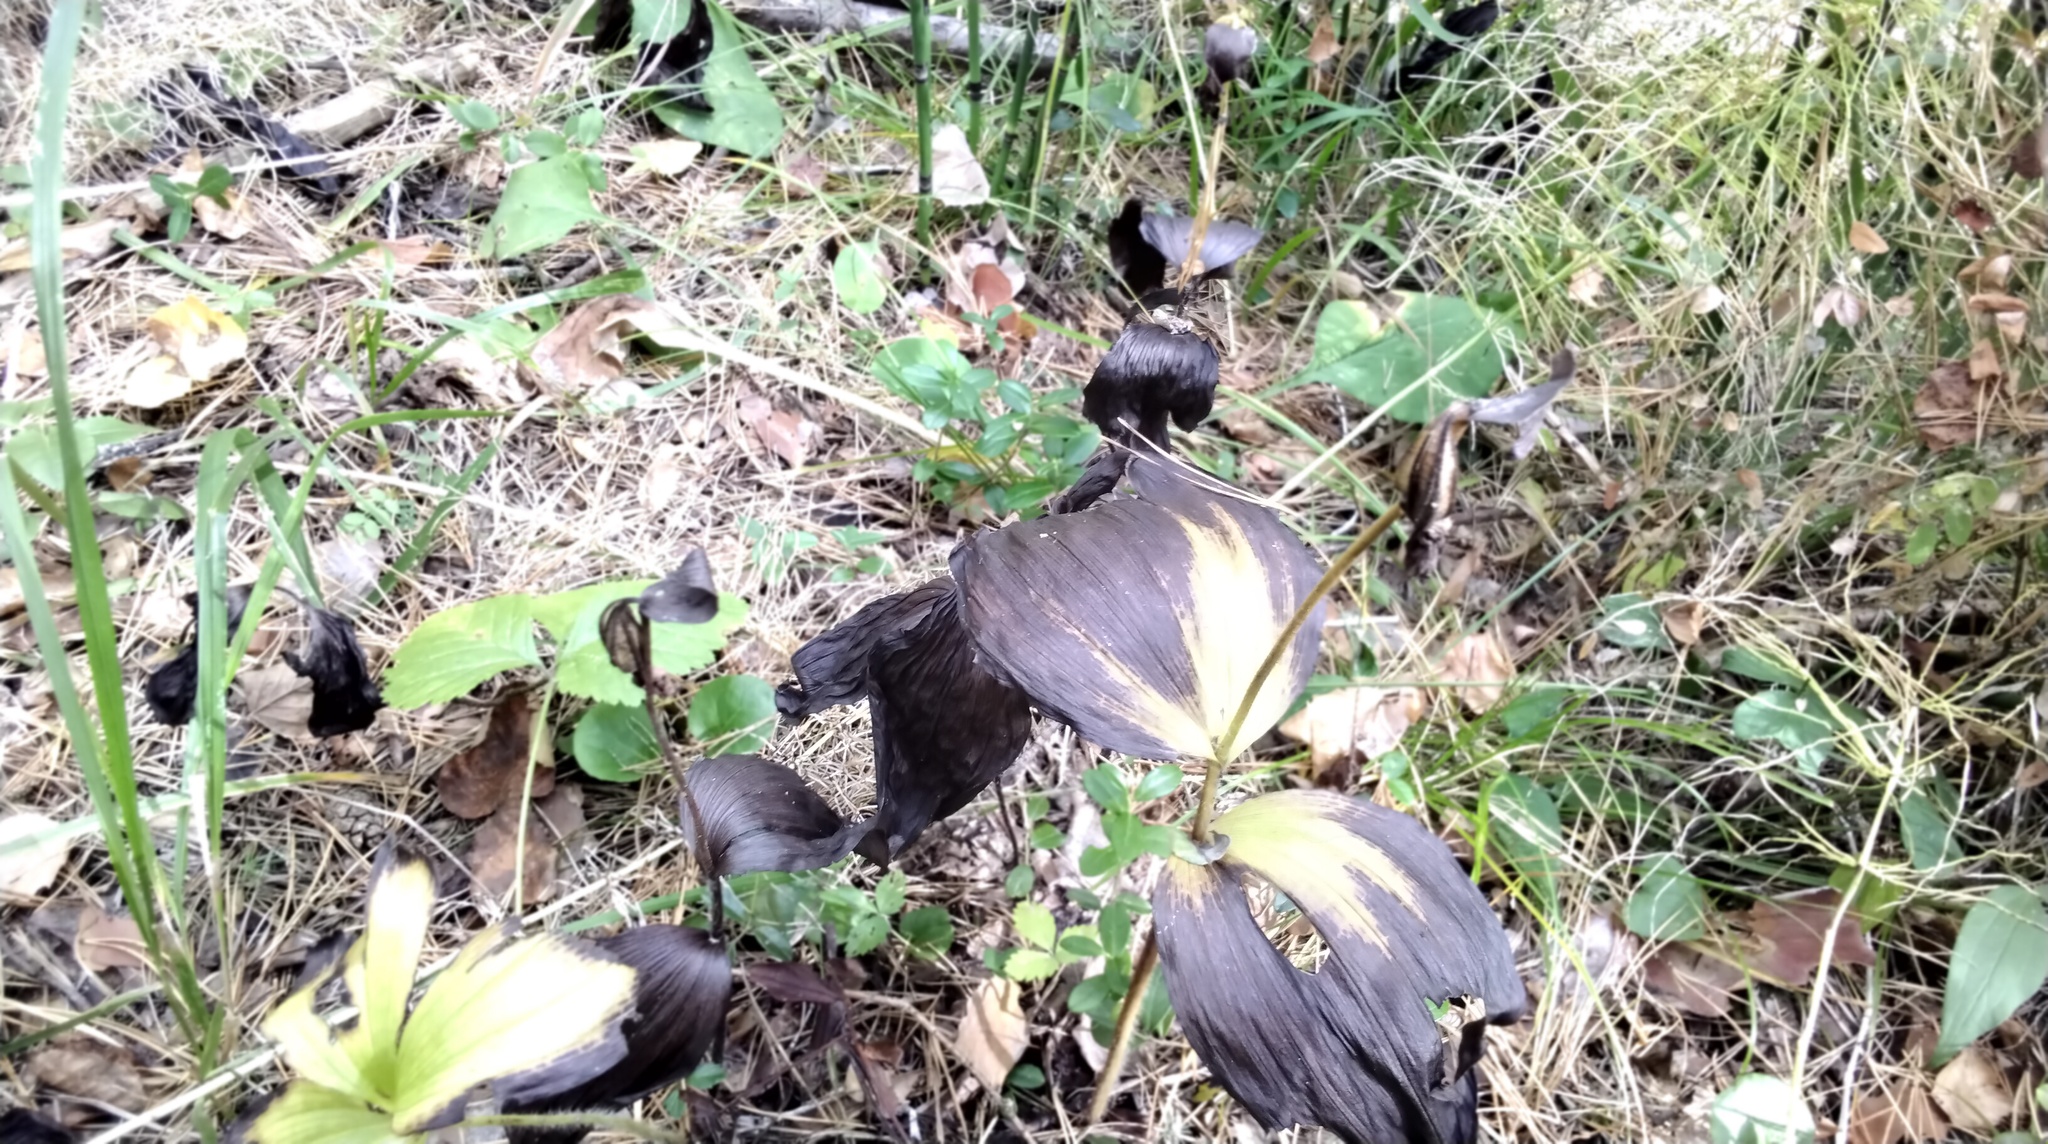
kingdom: Plantae
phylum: Tracheophyta
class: Liliopsida
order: Asparagales
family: Orchidaceae
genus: Cypripedium
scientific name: Cypripedium guttatum
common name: Pink lady slipper
